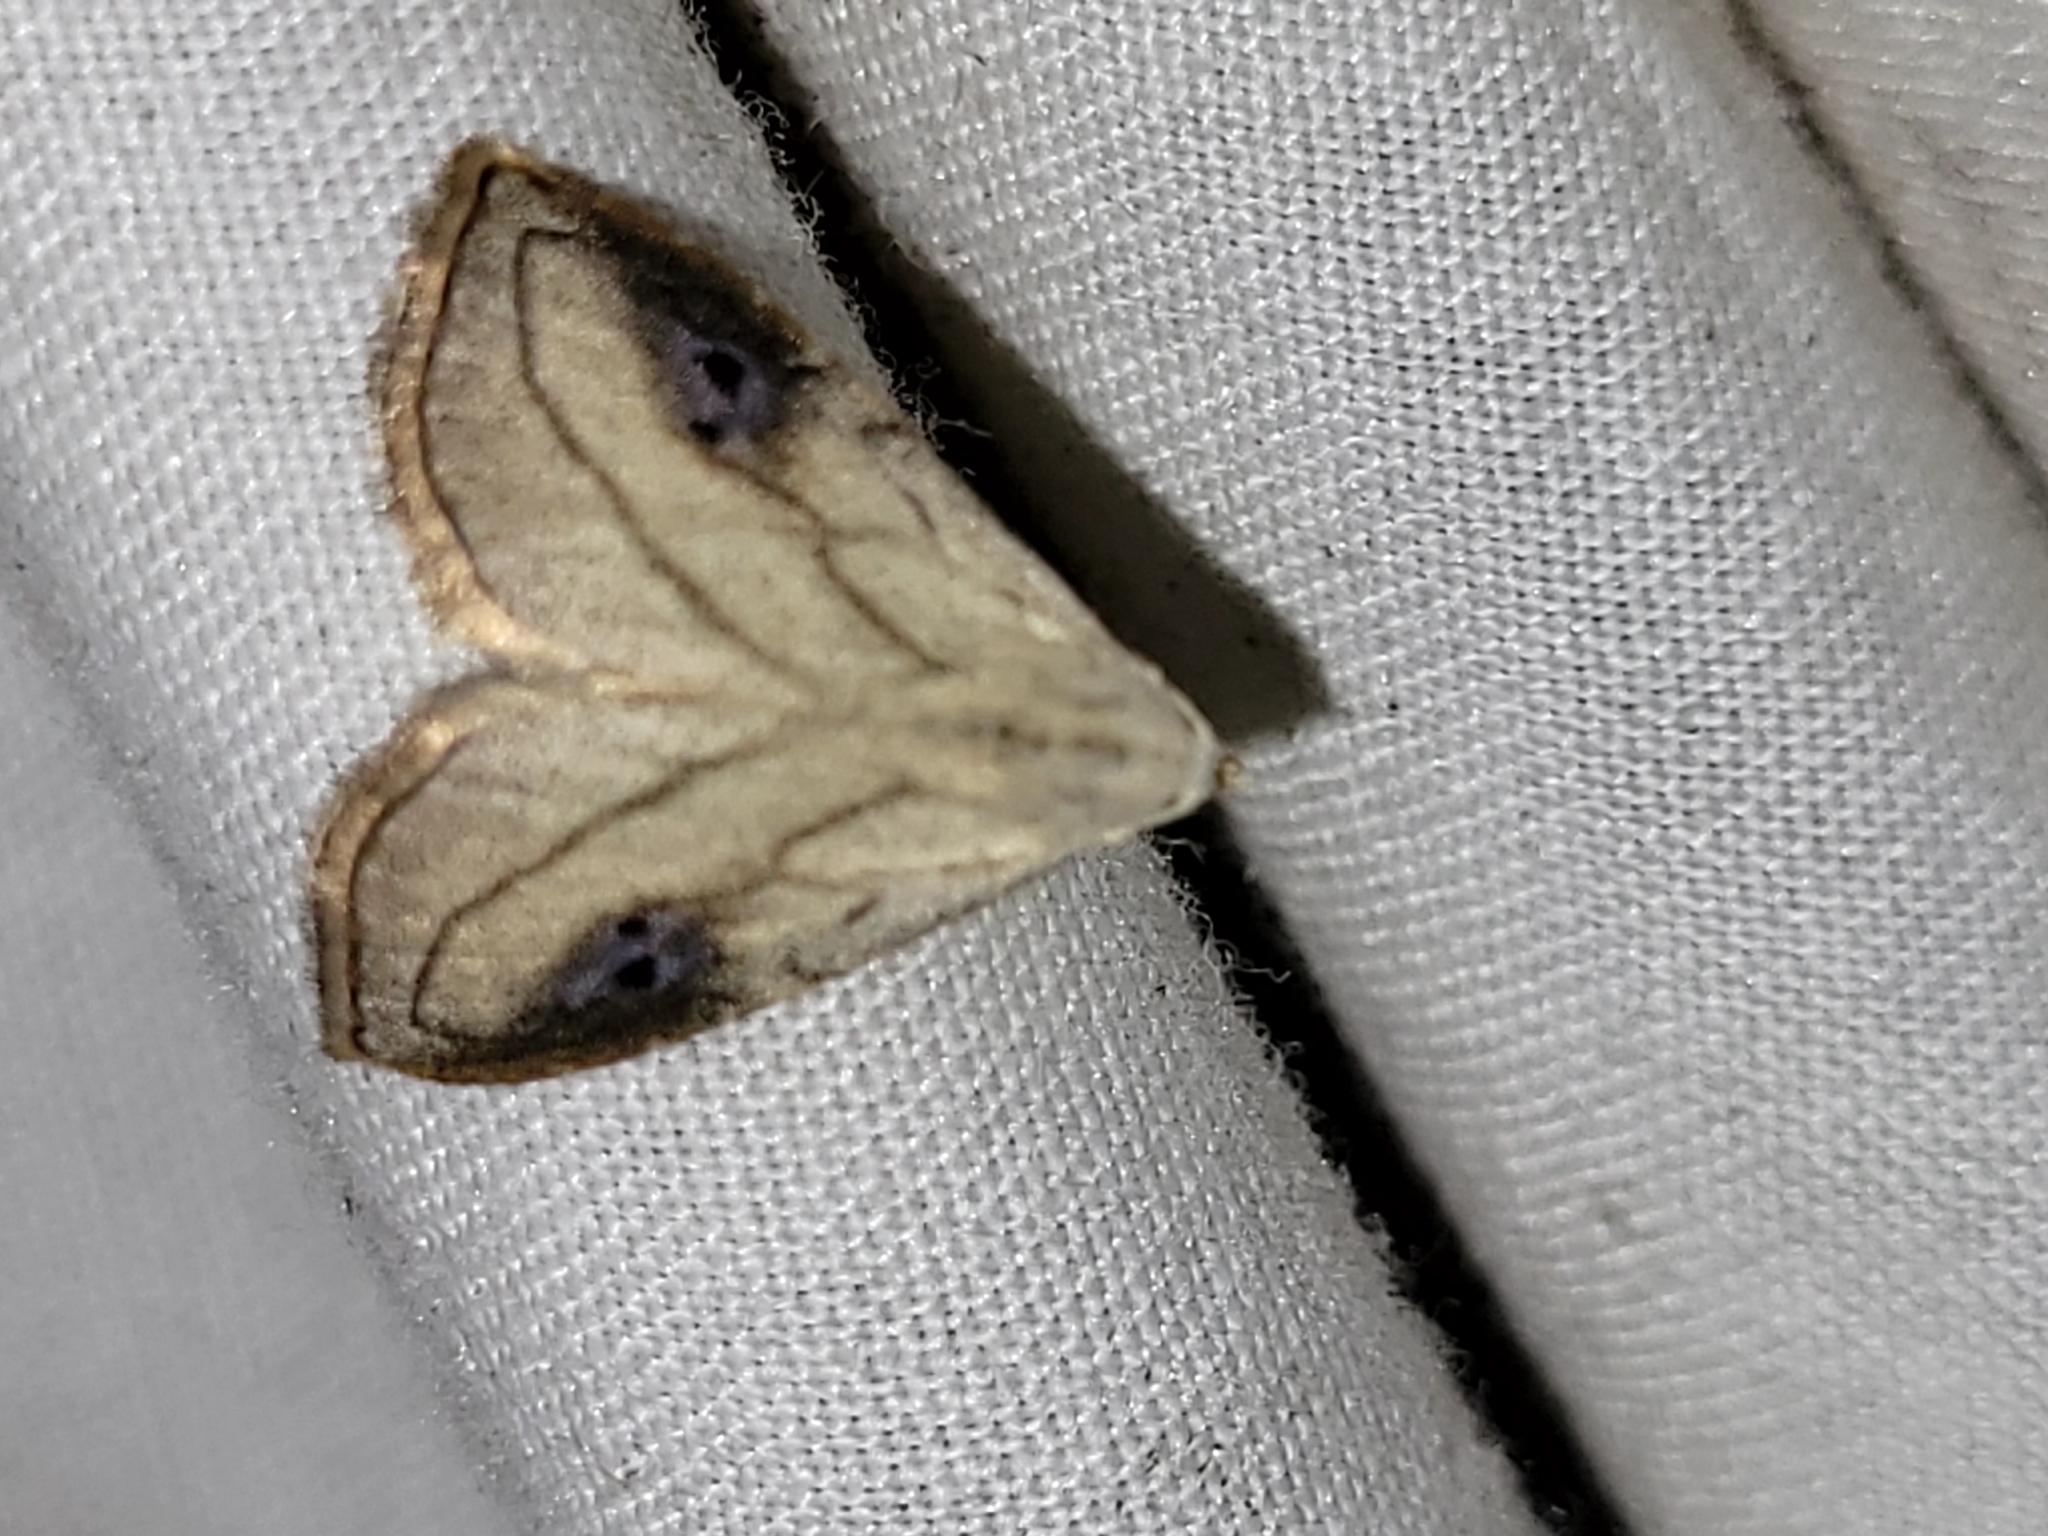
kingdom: Animalia
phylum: Arthropoda
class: Insecta
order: Lepidoptera
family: Erebidae
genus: Rivula
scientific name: Rivula propinqualis
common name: Spotted grass moth
